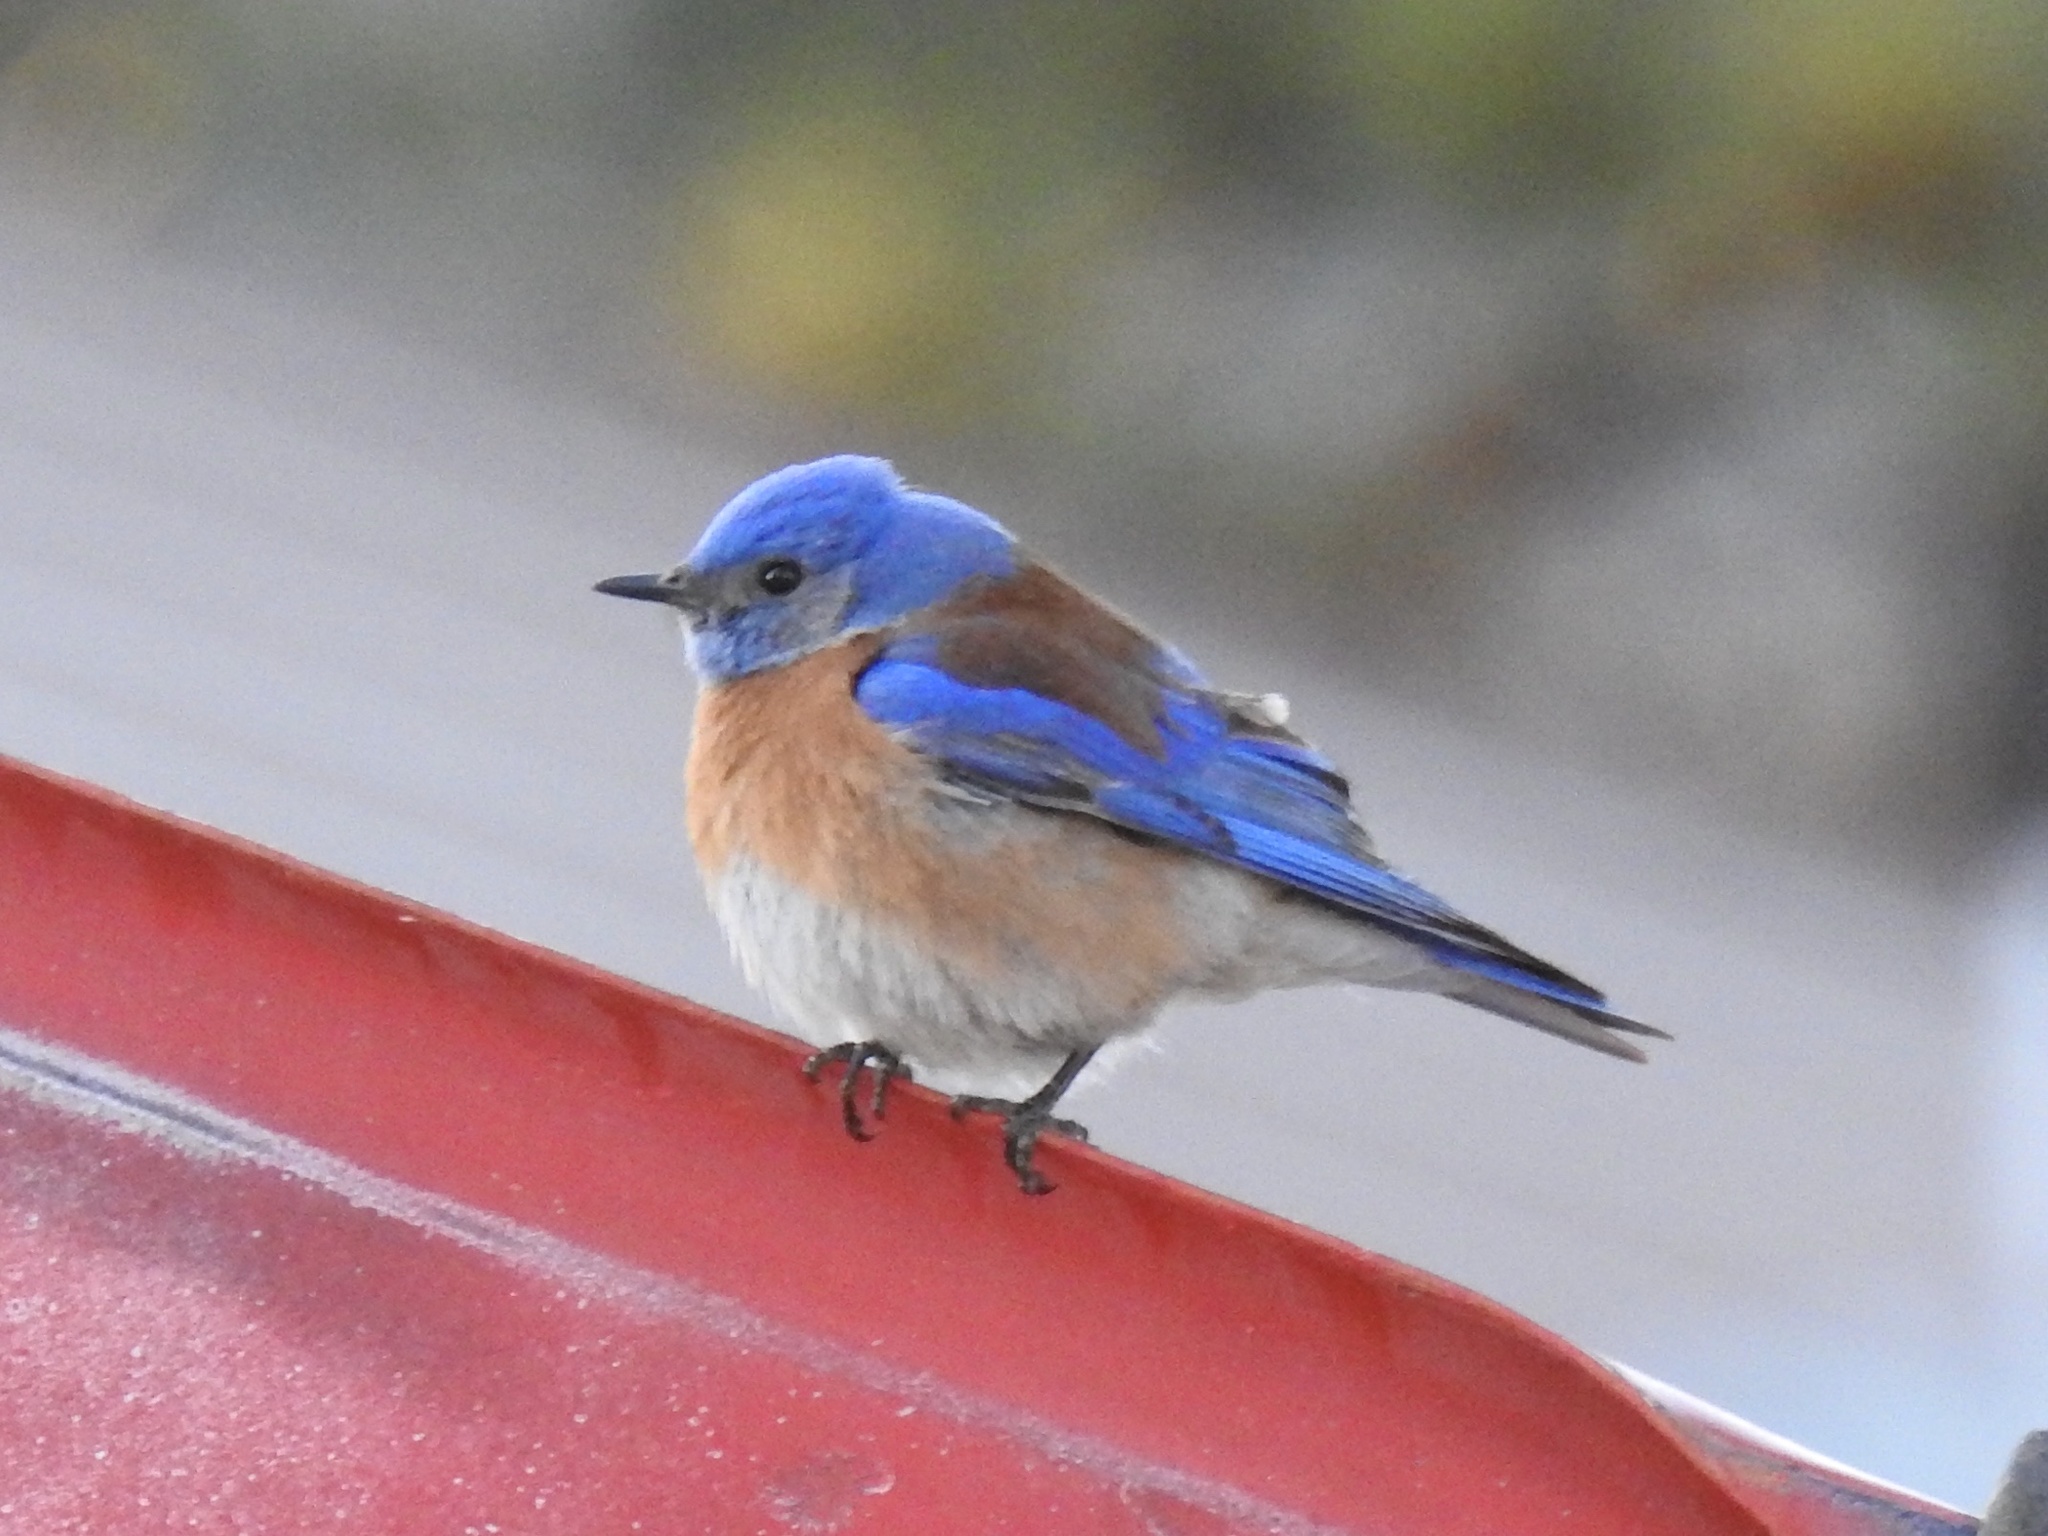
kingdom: Animalia
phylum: Chordata
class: Aves
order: Passeriformes
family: Turdidae
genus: Sialia
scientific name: Sialia mexicana
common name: Western bluebird
